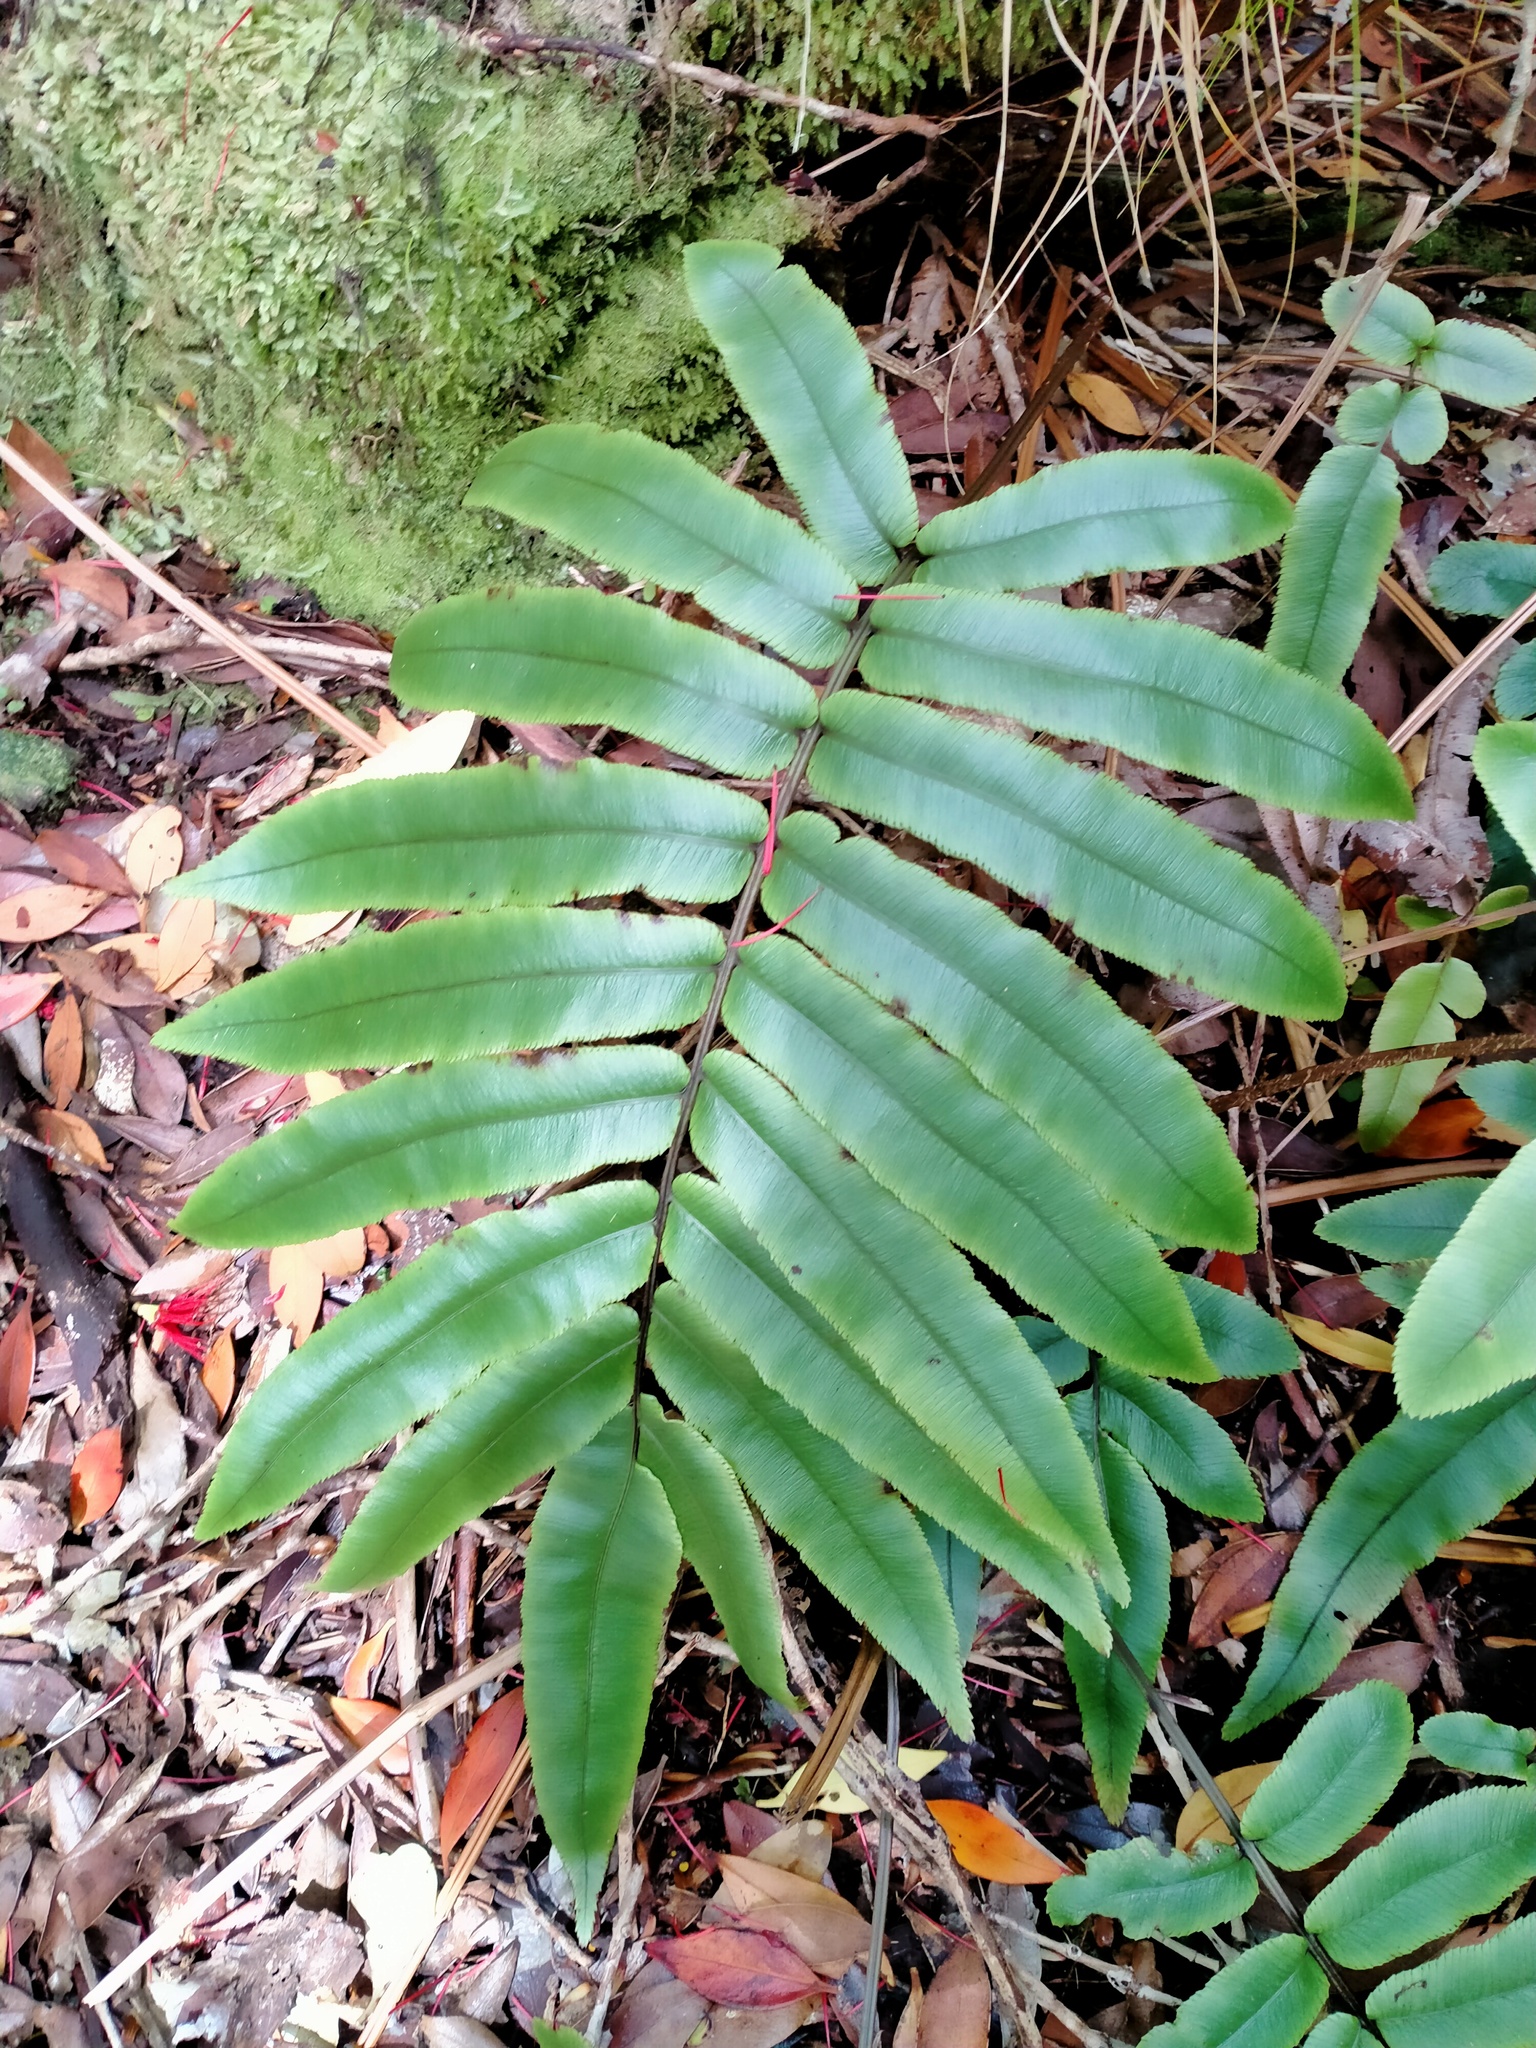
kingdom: Plantae
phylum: Tracheophyta
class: Polypodiopsida
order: Polypodiales
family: Blechnaceae
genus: Parablechnum
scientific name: Parablechnum procerum
